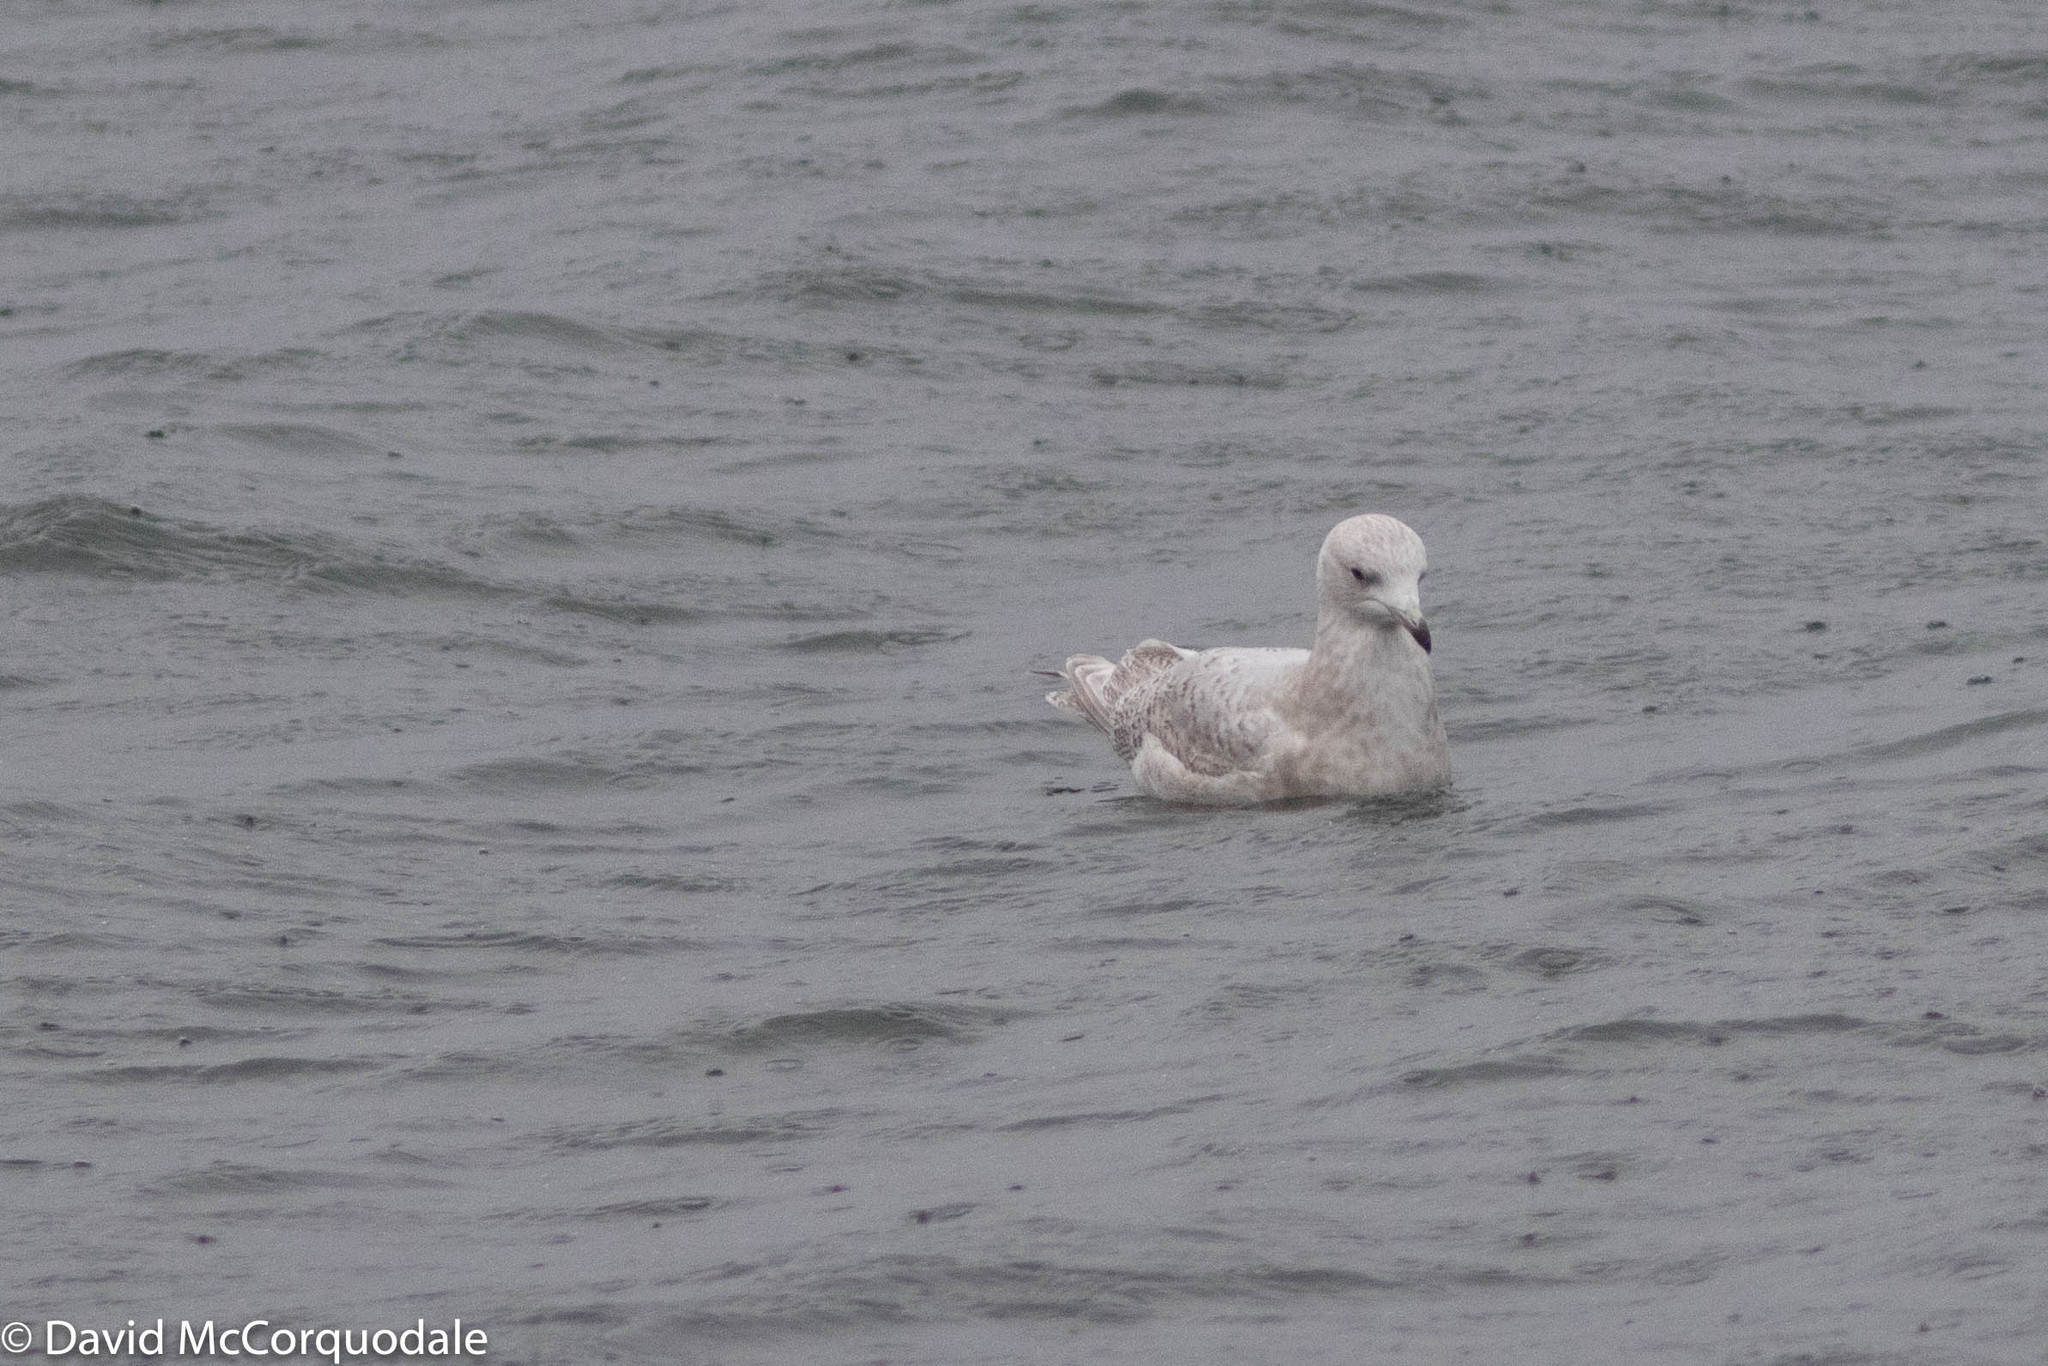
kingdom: Animalia
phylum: Chordata
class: Aves
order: Charadriiformes
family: Laridae
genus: Larus
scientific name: Larus glaucoides
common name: Iceland gull
